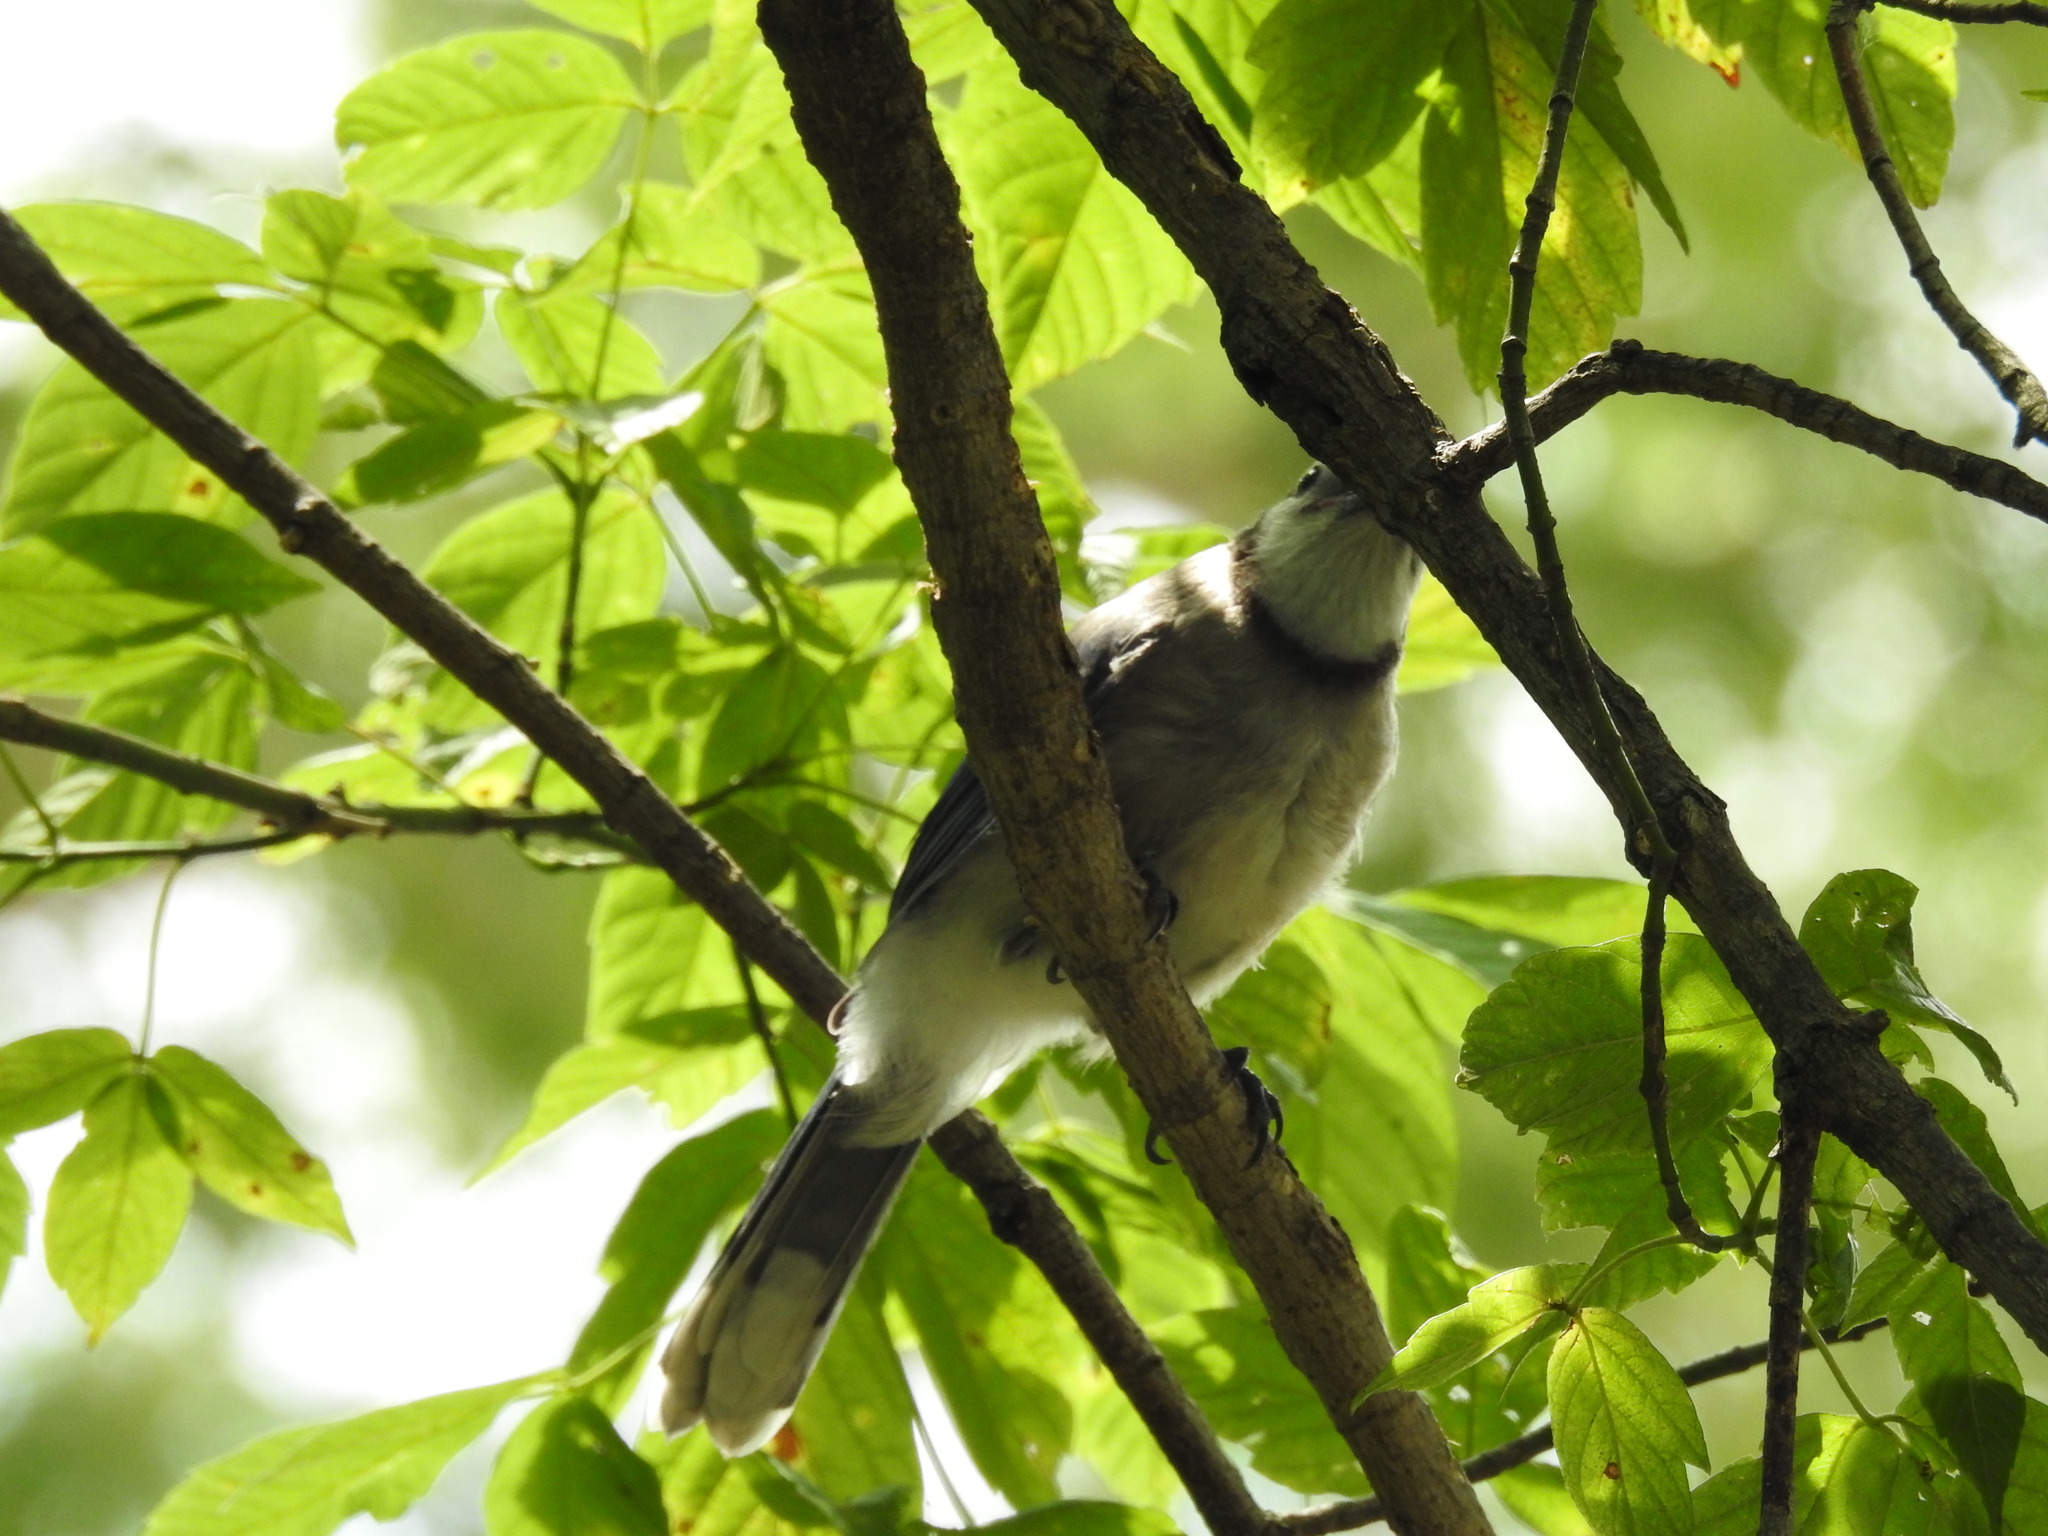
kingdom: Animalia
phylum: Chordata
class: Aves
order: Passeriformes
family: Corvidae
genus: Cyanocitta
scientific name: Cyanocitta cristata
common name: Blue jay
